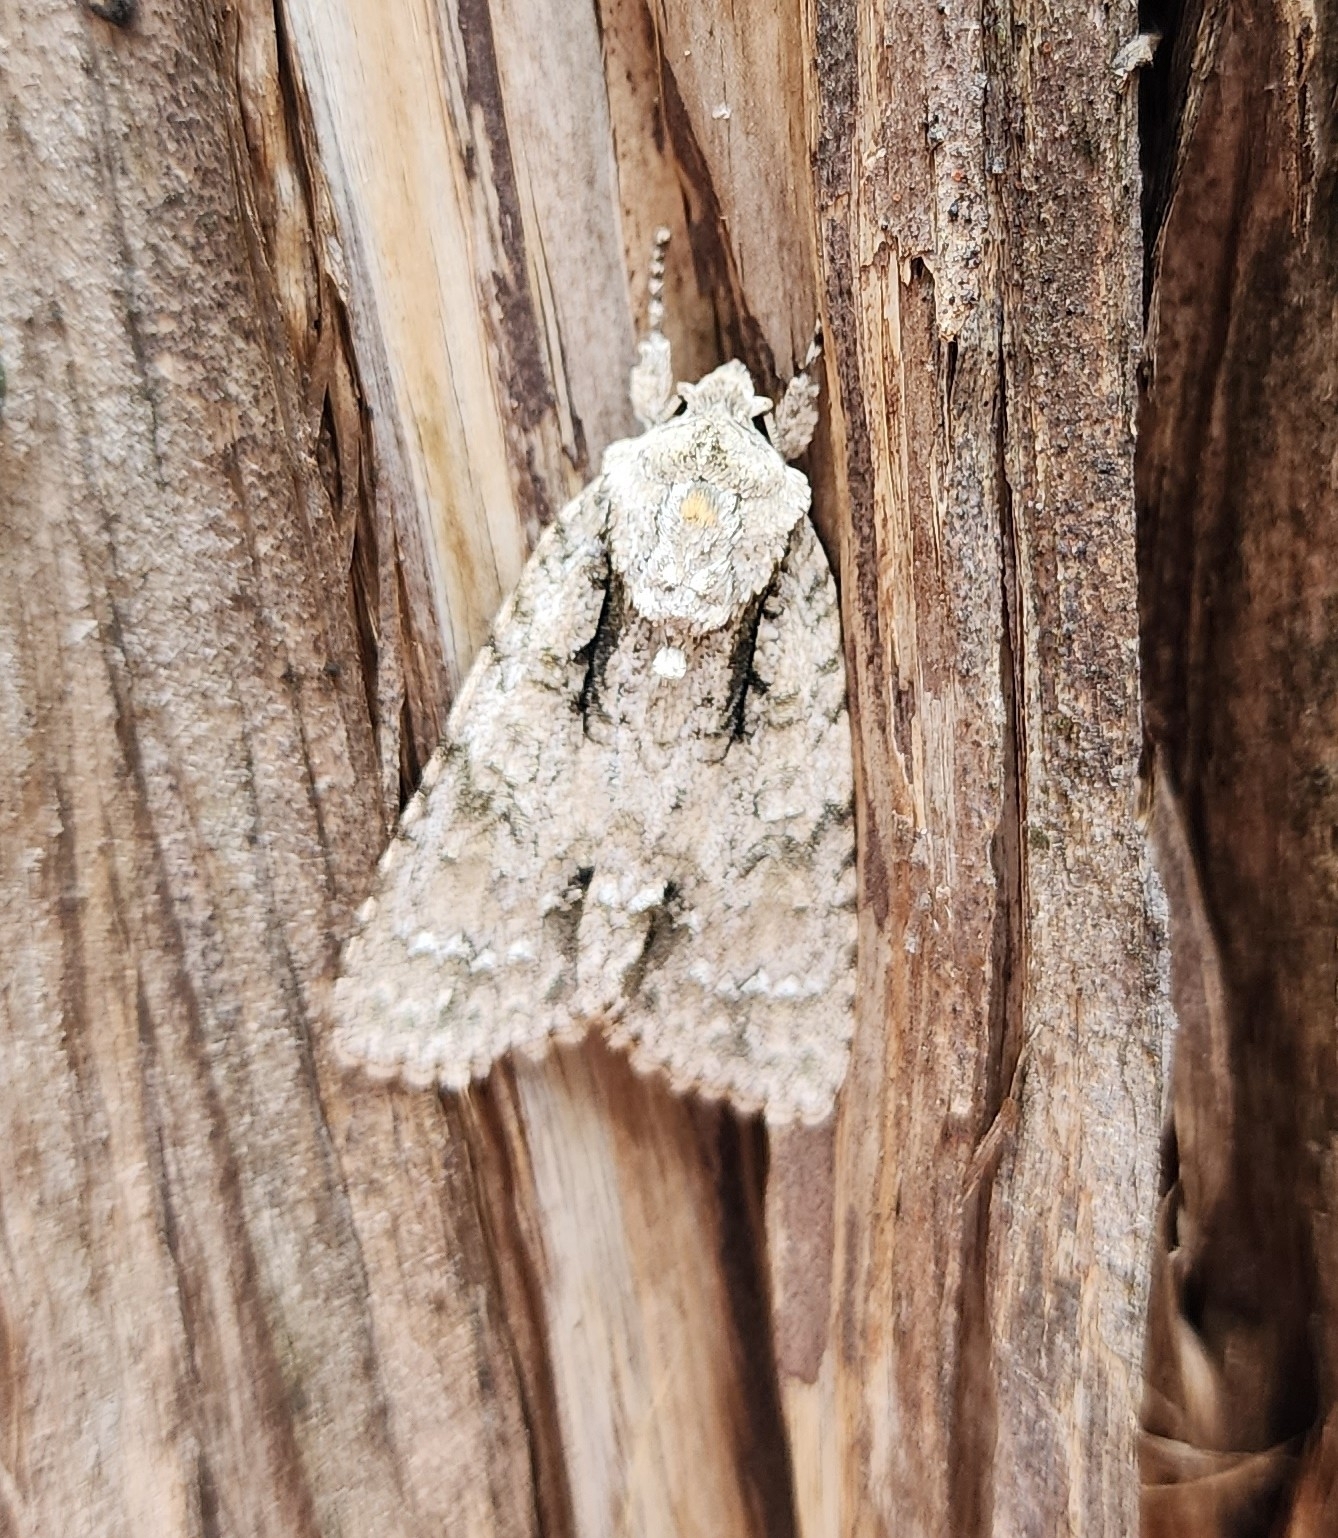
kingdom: Animalia
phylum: Arthropoda
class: Insecta
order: Lepidoptera
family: Noctuidae
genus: Acronicta
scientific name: Acronicta clarescens
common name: Clear dagger
